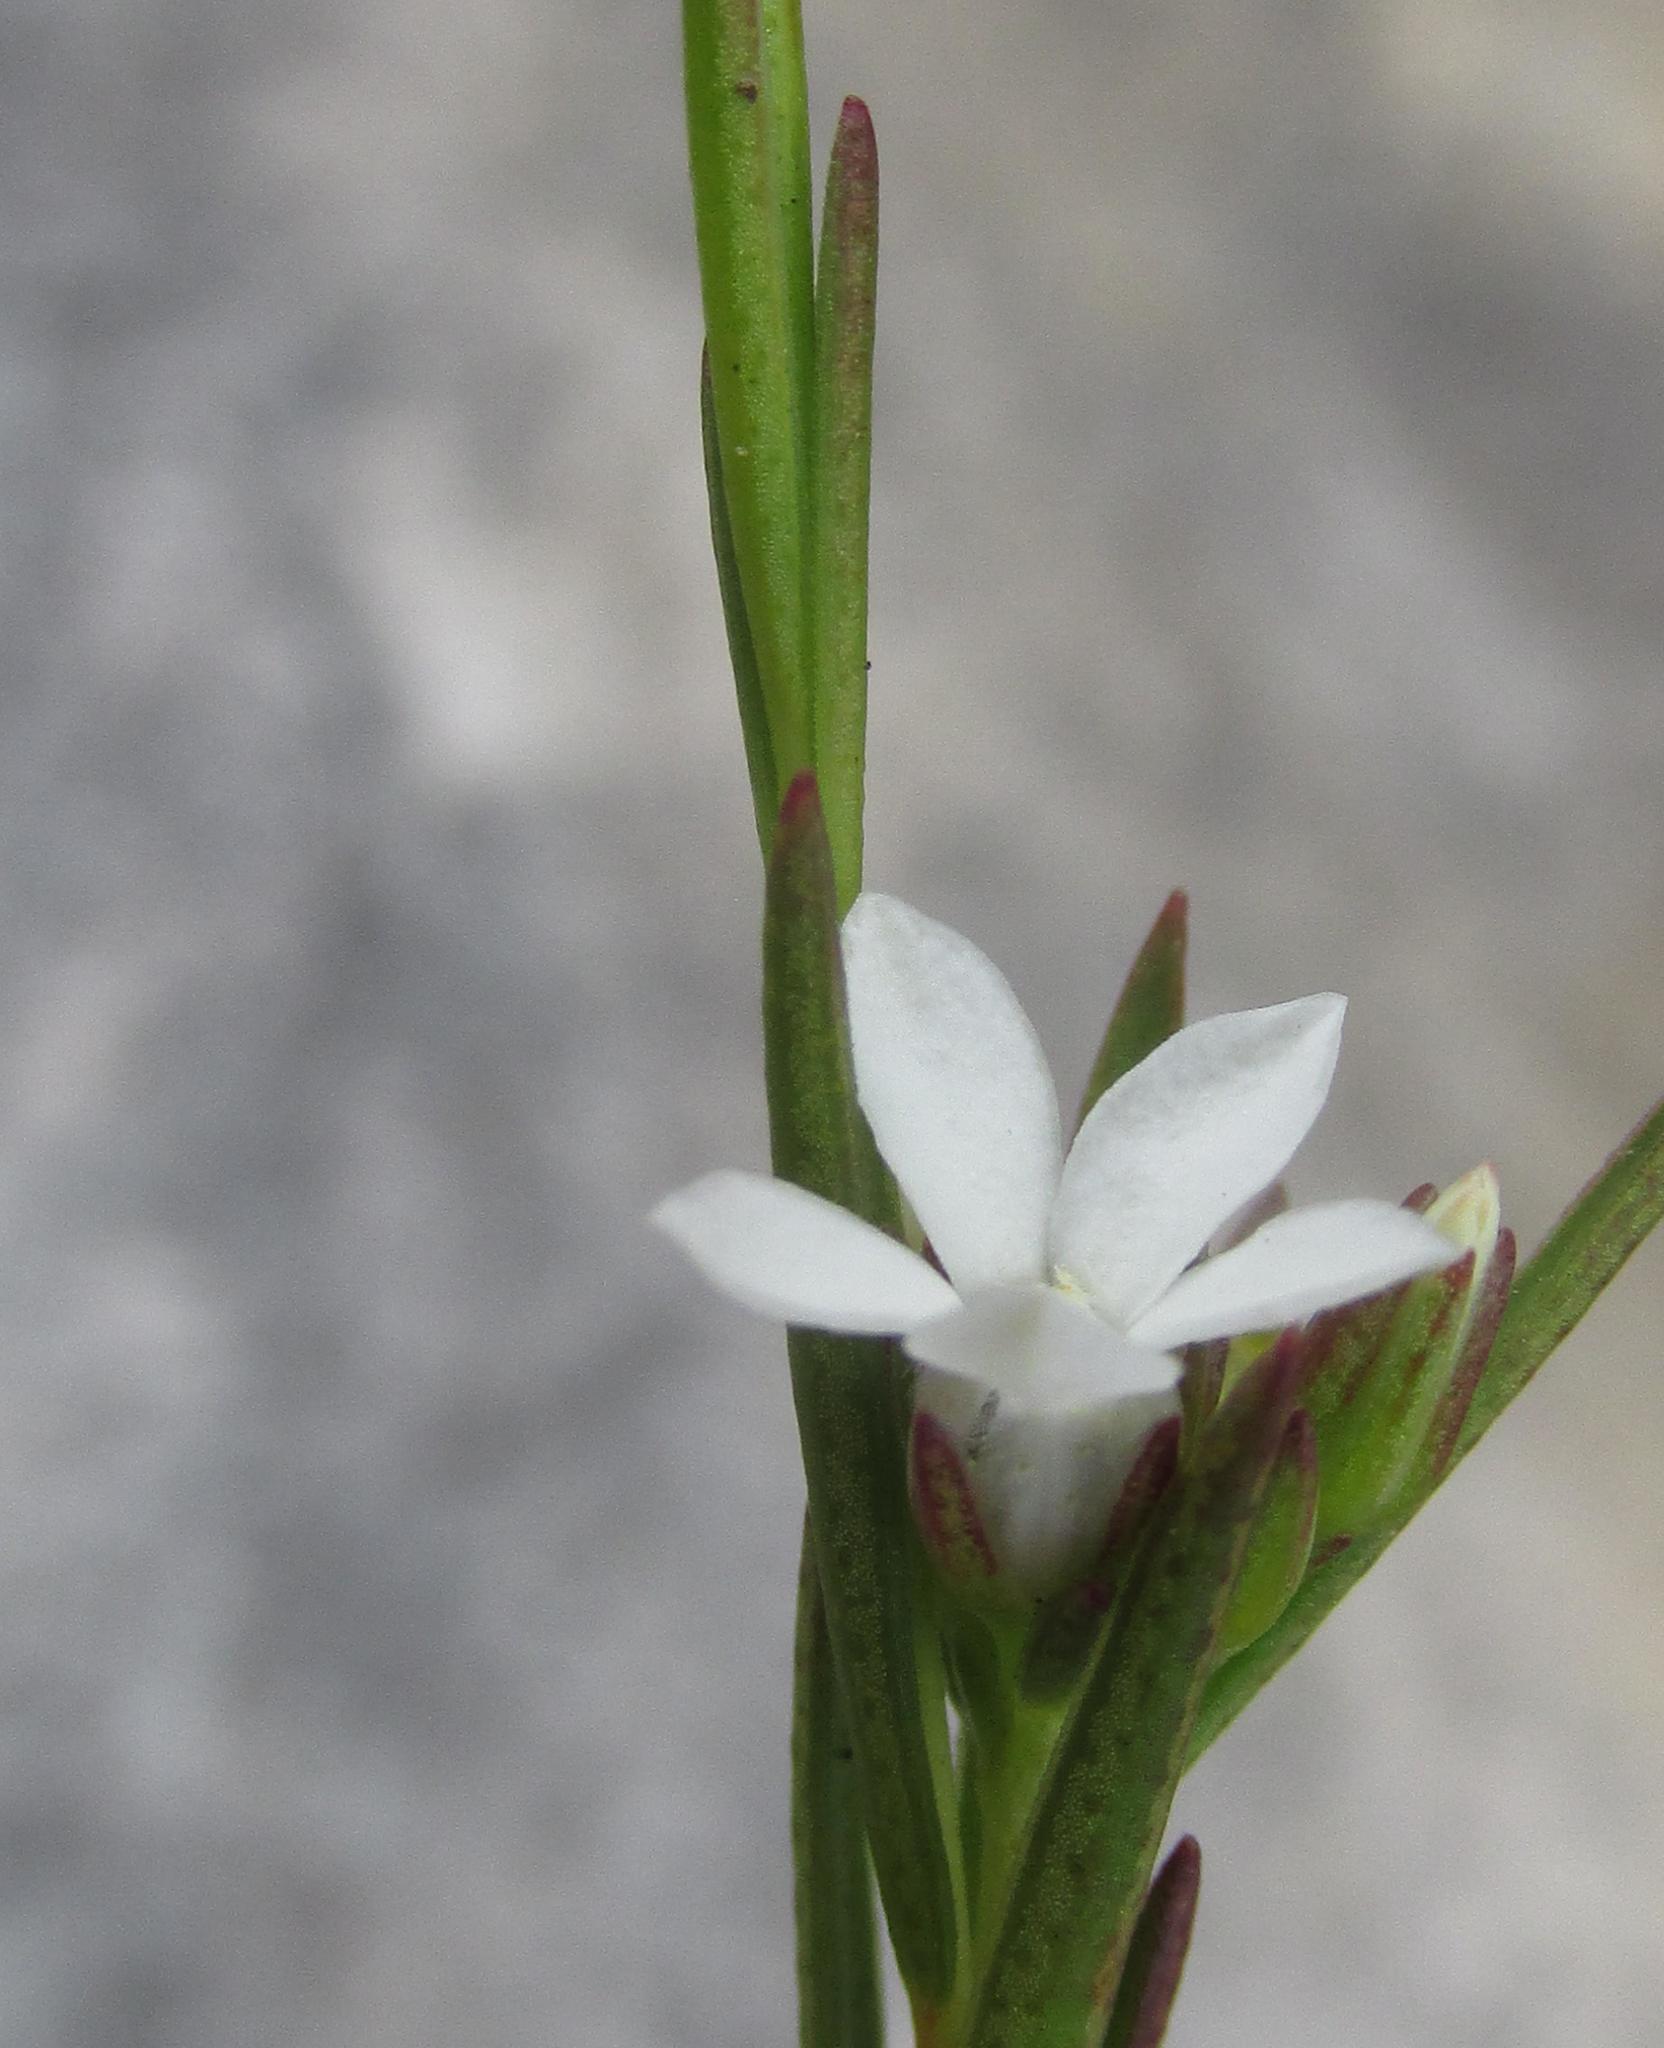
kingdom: Plantae
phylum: Tracheophyta
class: Magnoliopsida
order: Sapindales
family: Rutaceae
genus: Euchaetis
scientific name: Euchaetis cristagalli
